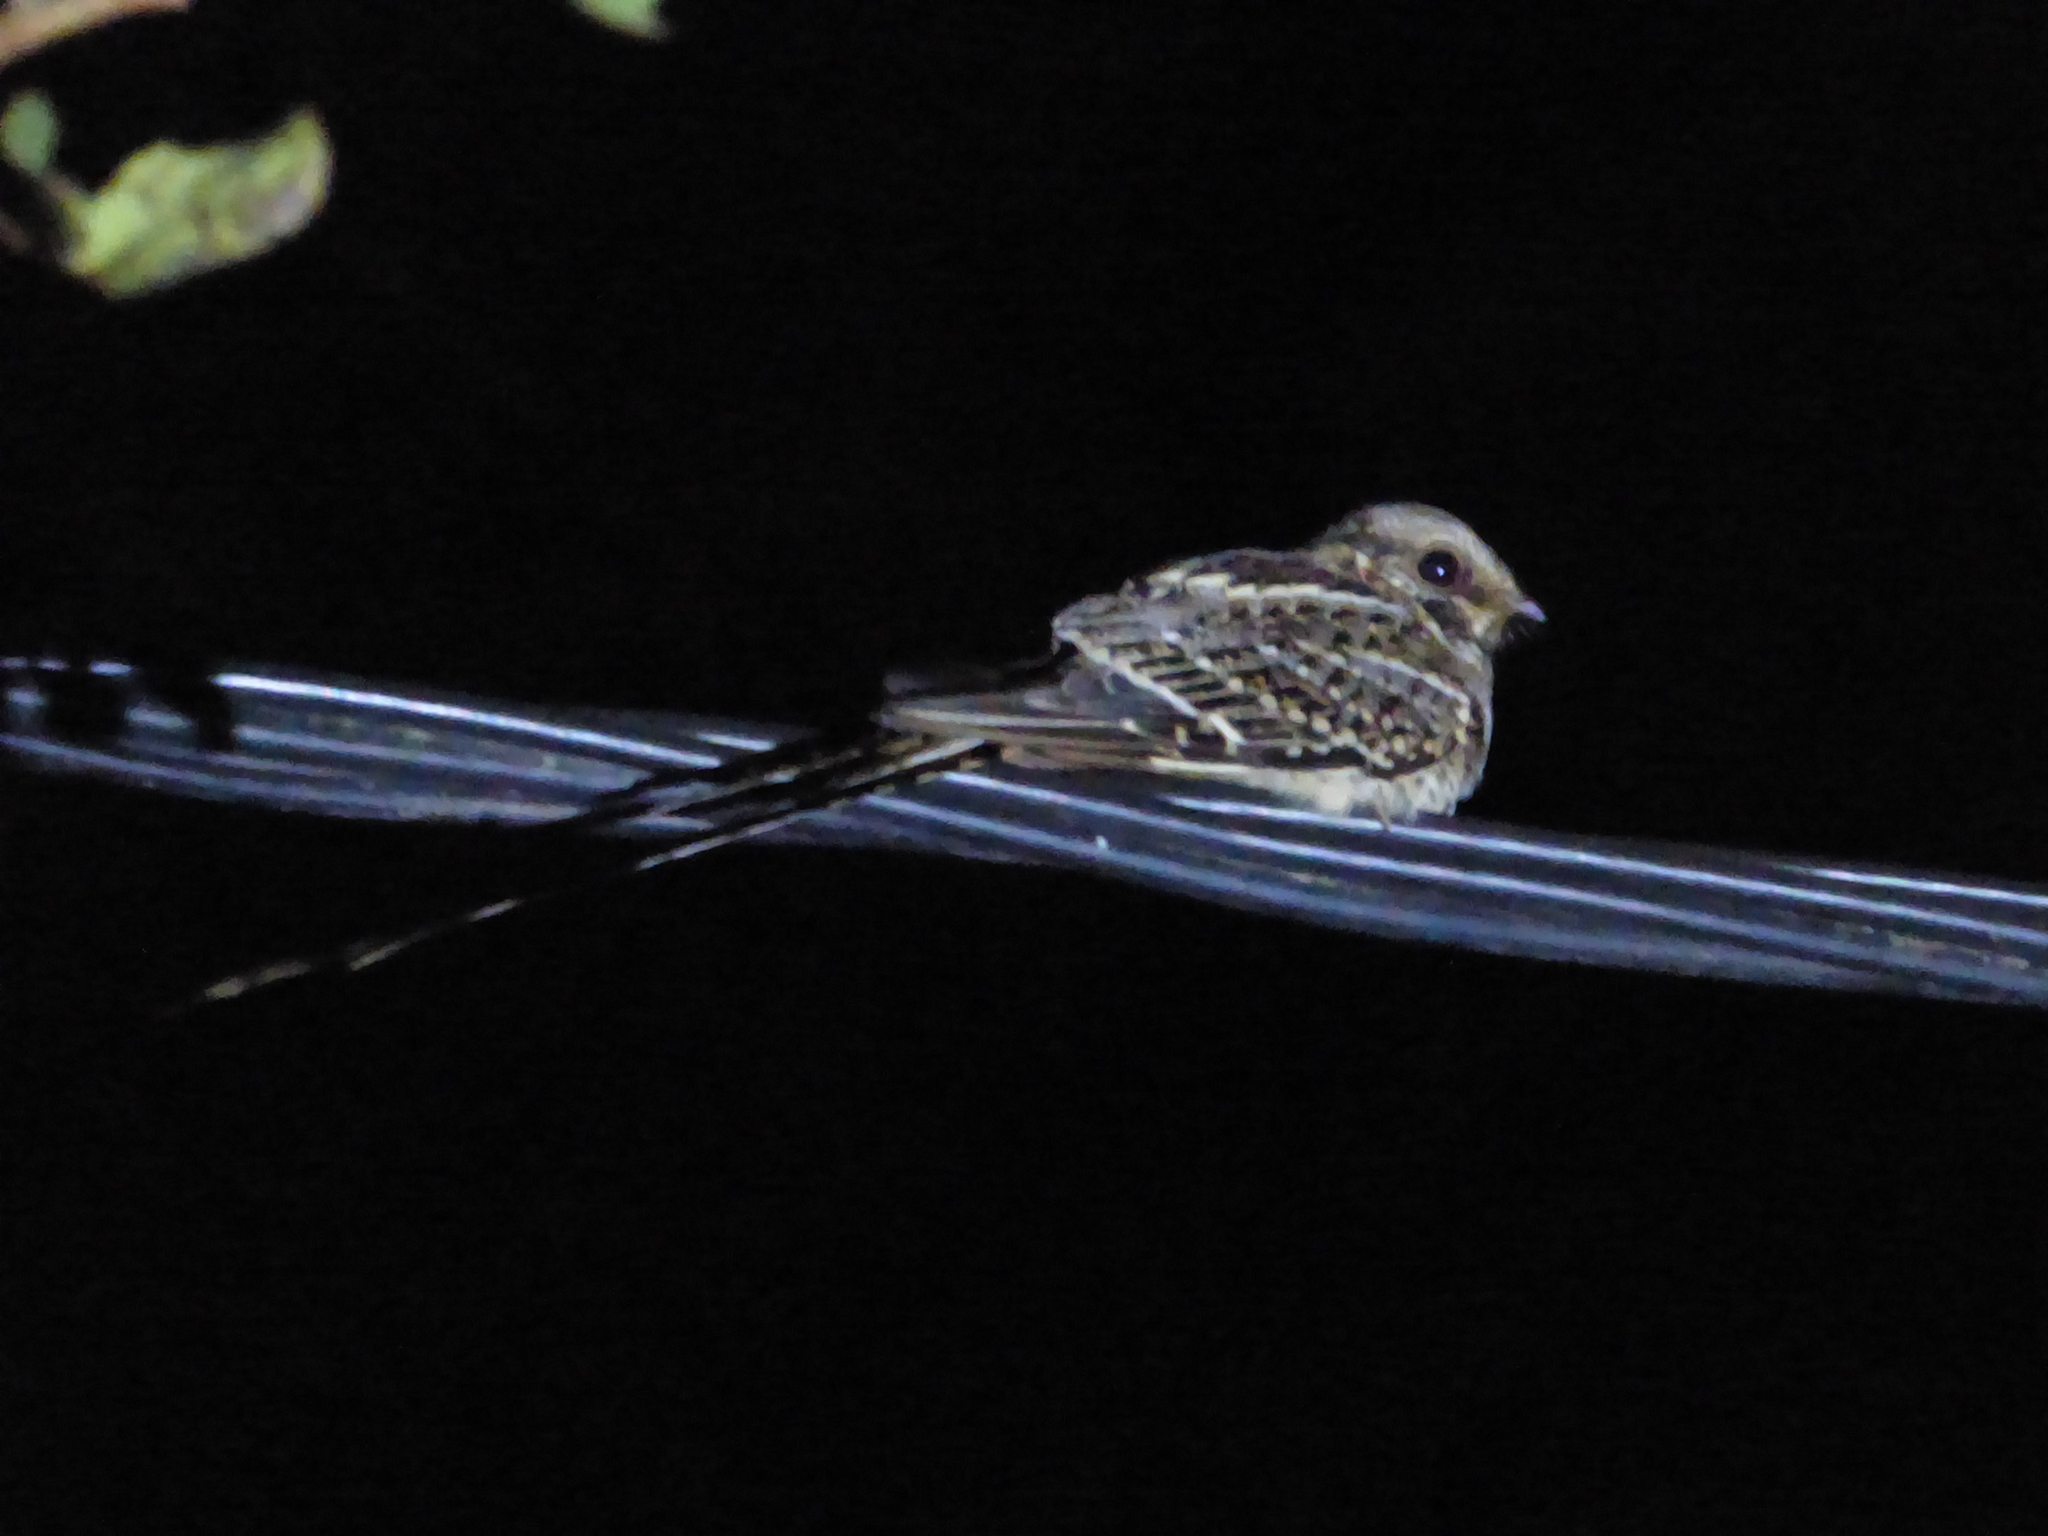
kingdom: Animalia
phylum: Chordata
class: Aves
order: Caprimulgiformes
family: Caprimulgidae
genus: Hydropsalis
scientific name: Hydropsalis torquata
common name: Scissor-tailed nightjar
